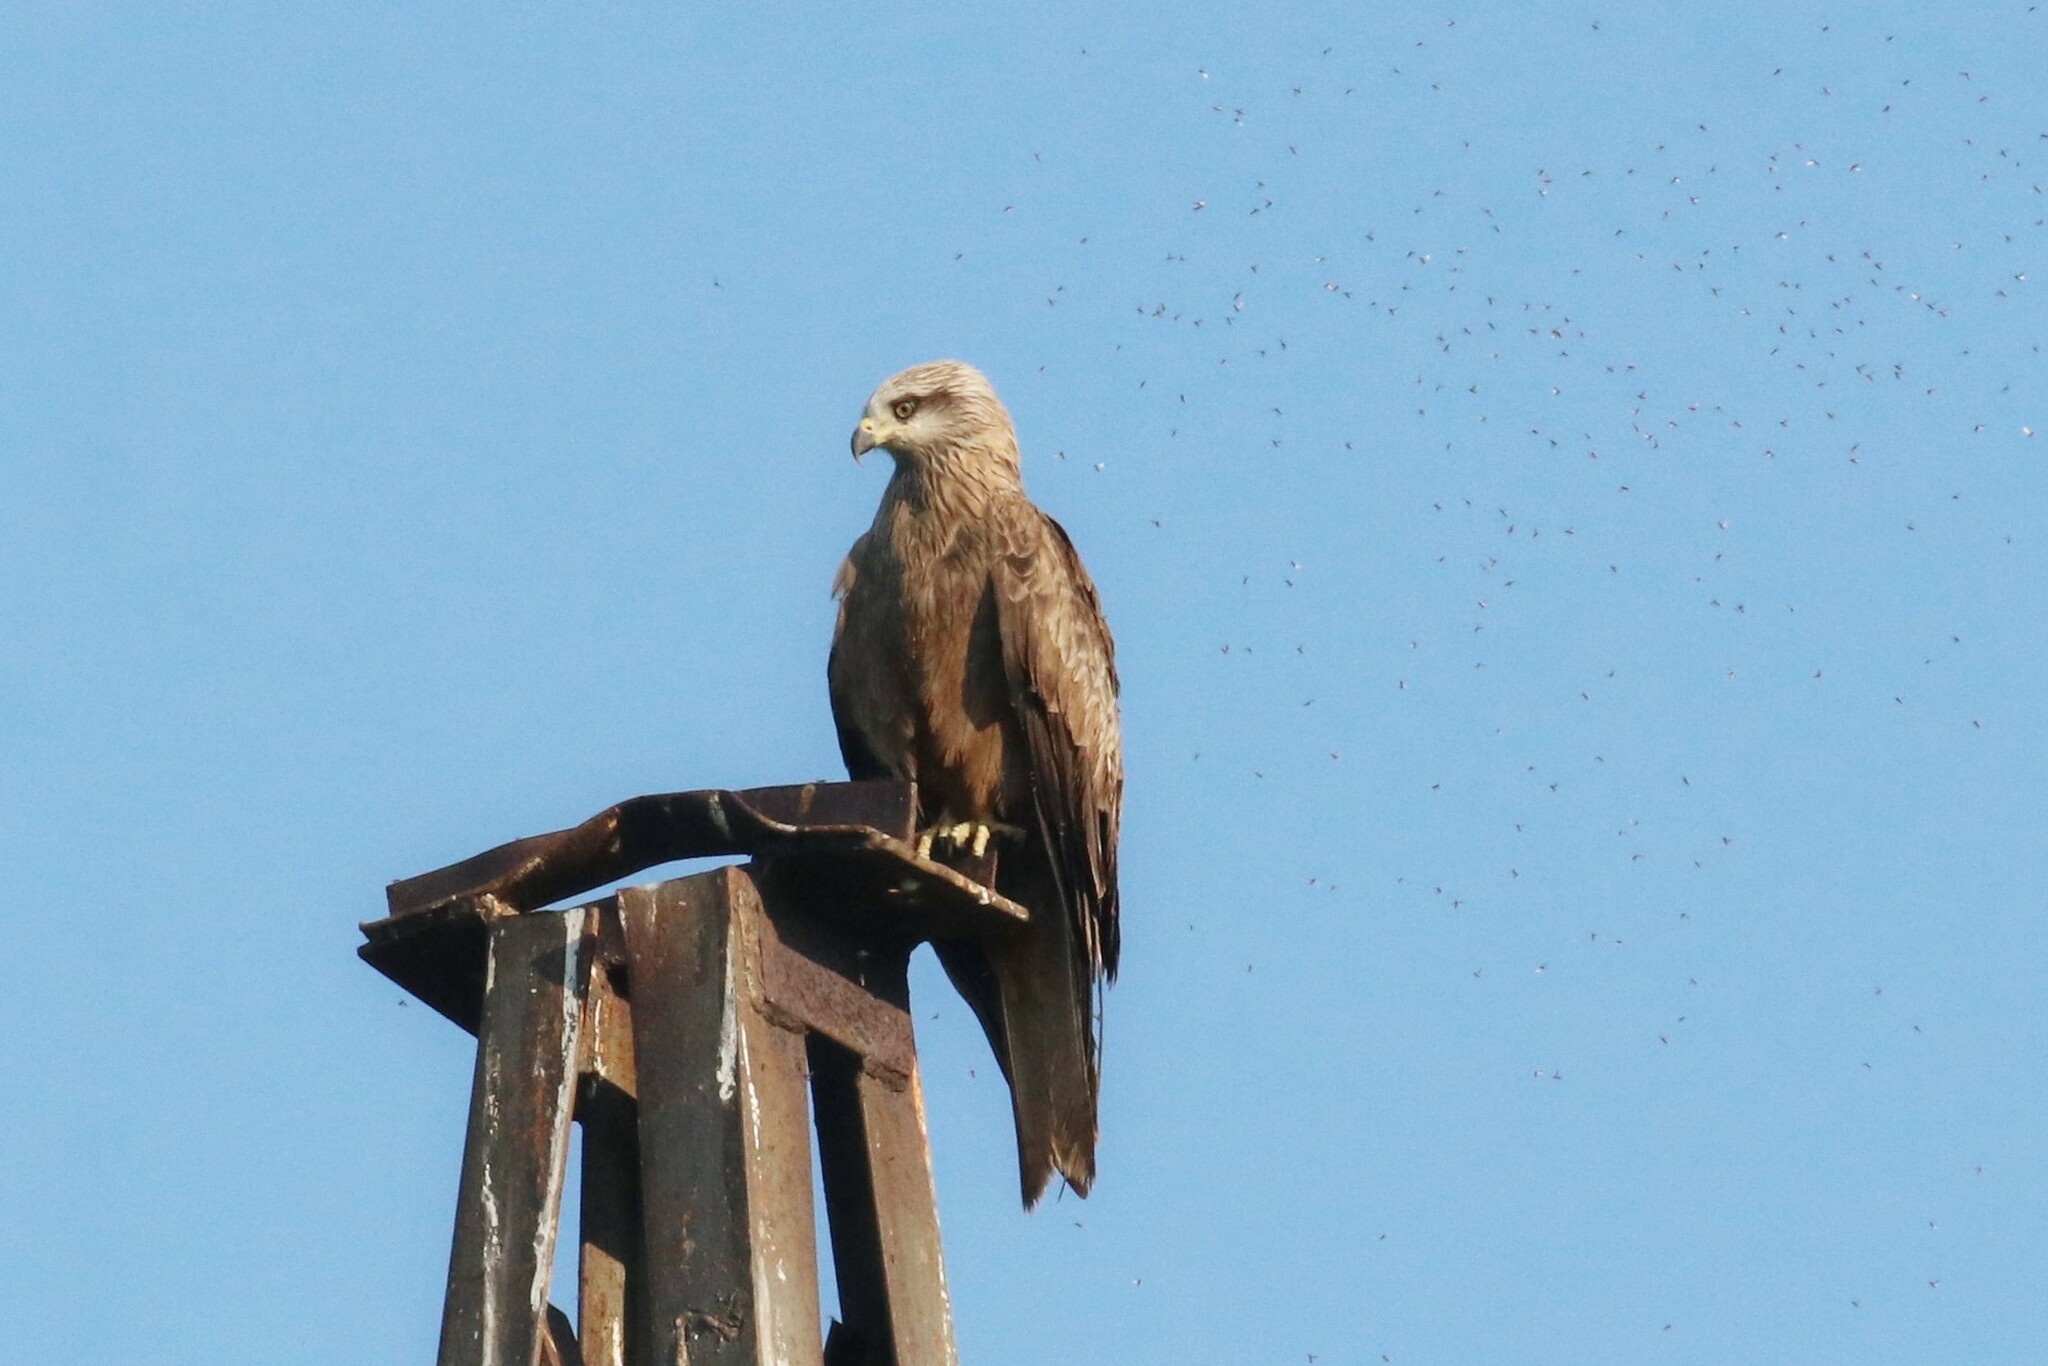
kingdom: Animalia
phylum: Chordata
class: Aves
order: Accipitriformes
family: Accipitridae
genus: Milvus
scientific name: Milvus migrans
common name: Black kite
